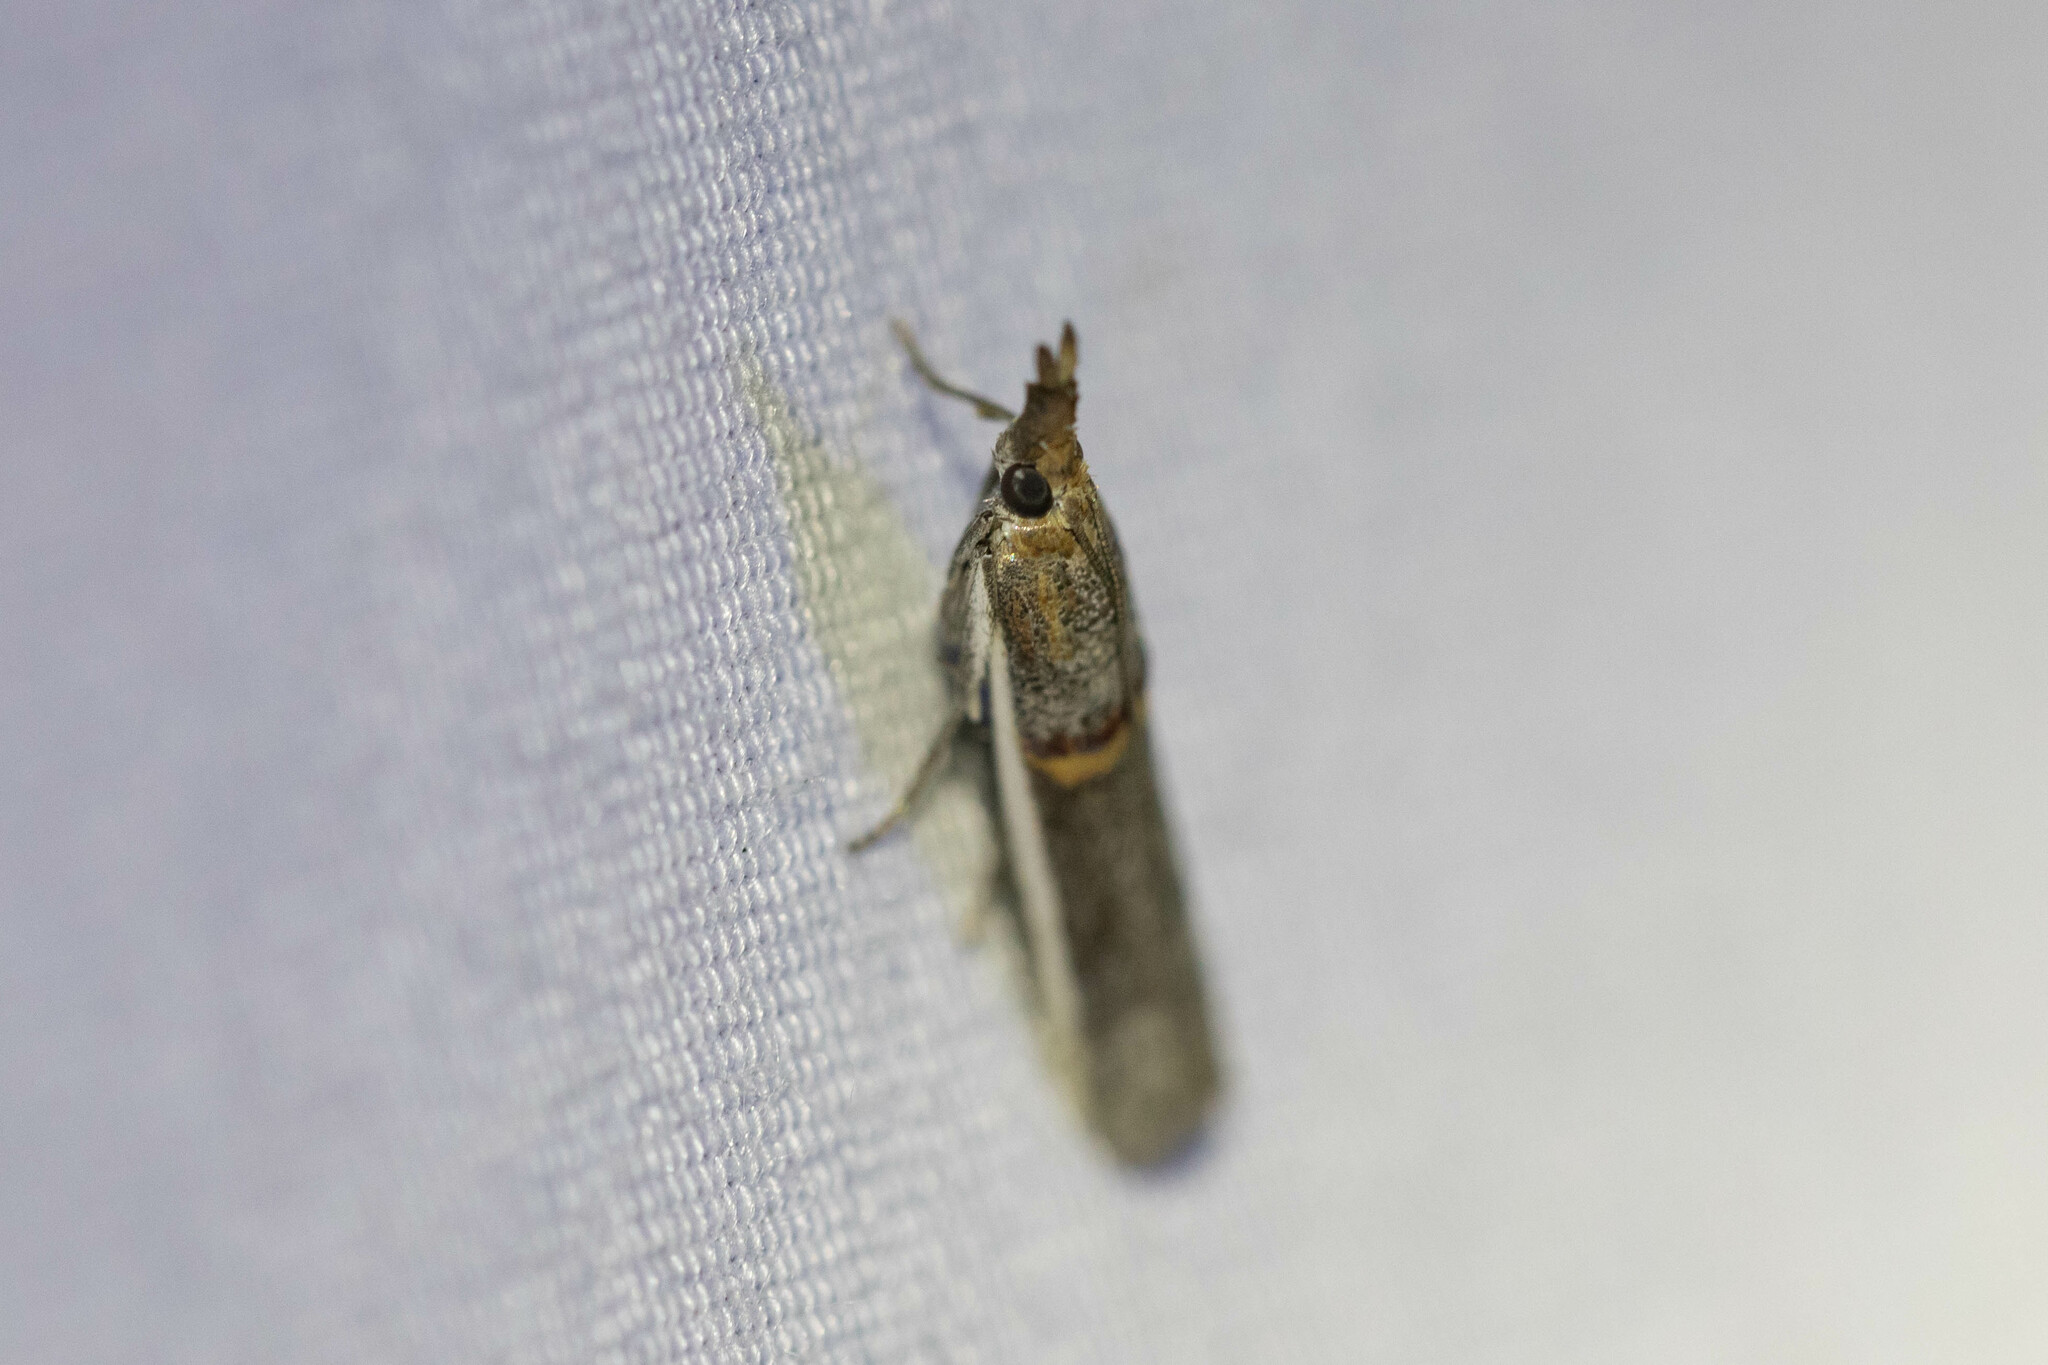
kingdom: Animalia
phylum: Arthropoda
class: Insecta
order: Lepidoptera
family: Pyralidae
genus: Etiella
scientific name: Etiella zinckenella
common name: Gold-banded etiella moth
